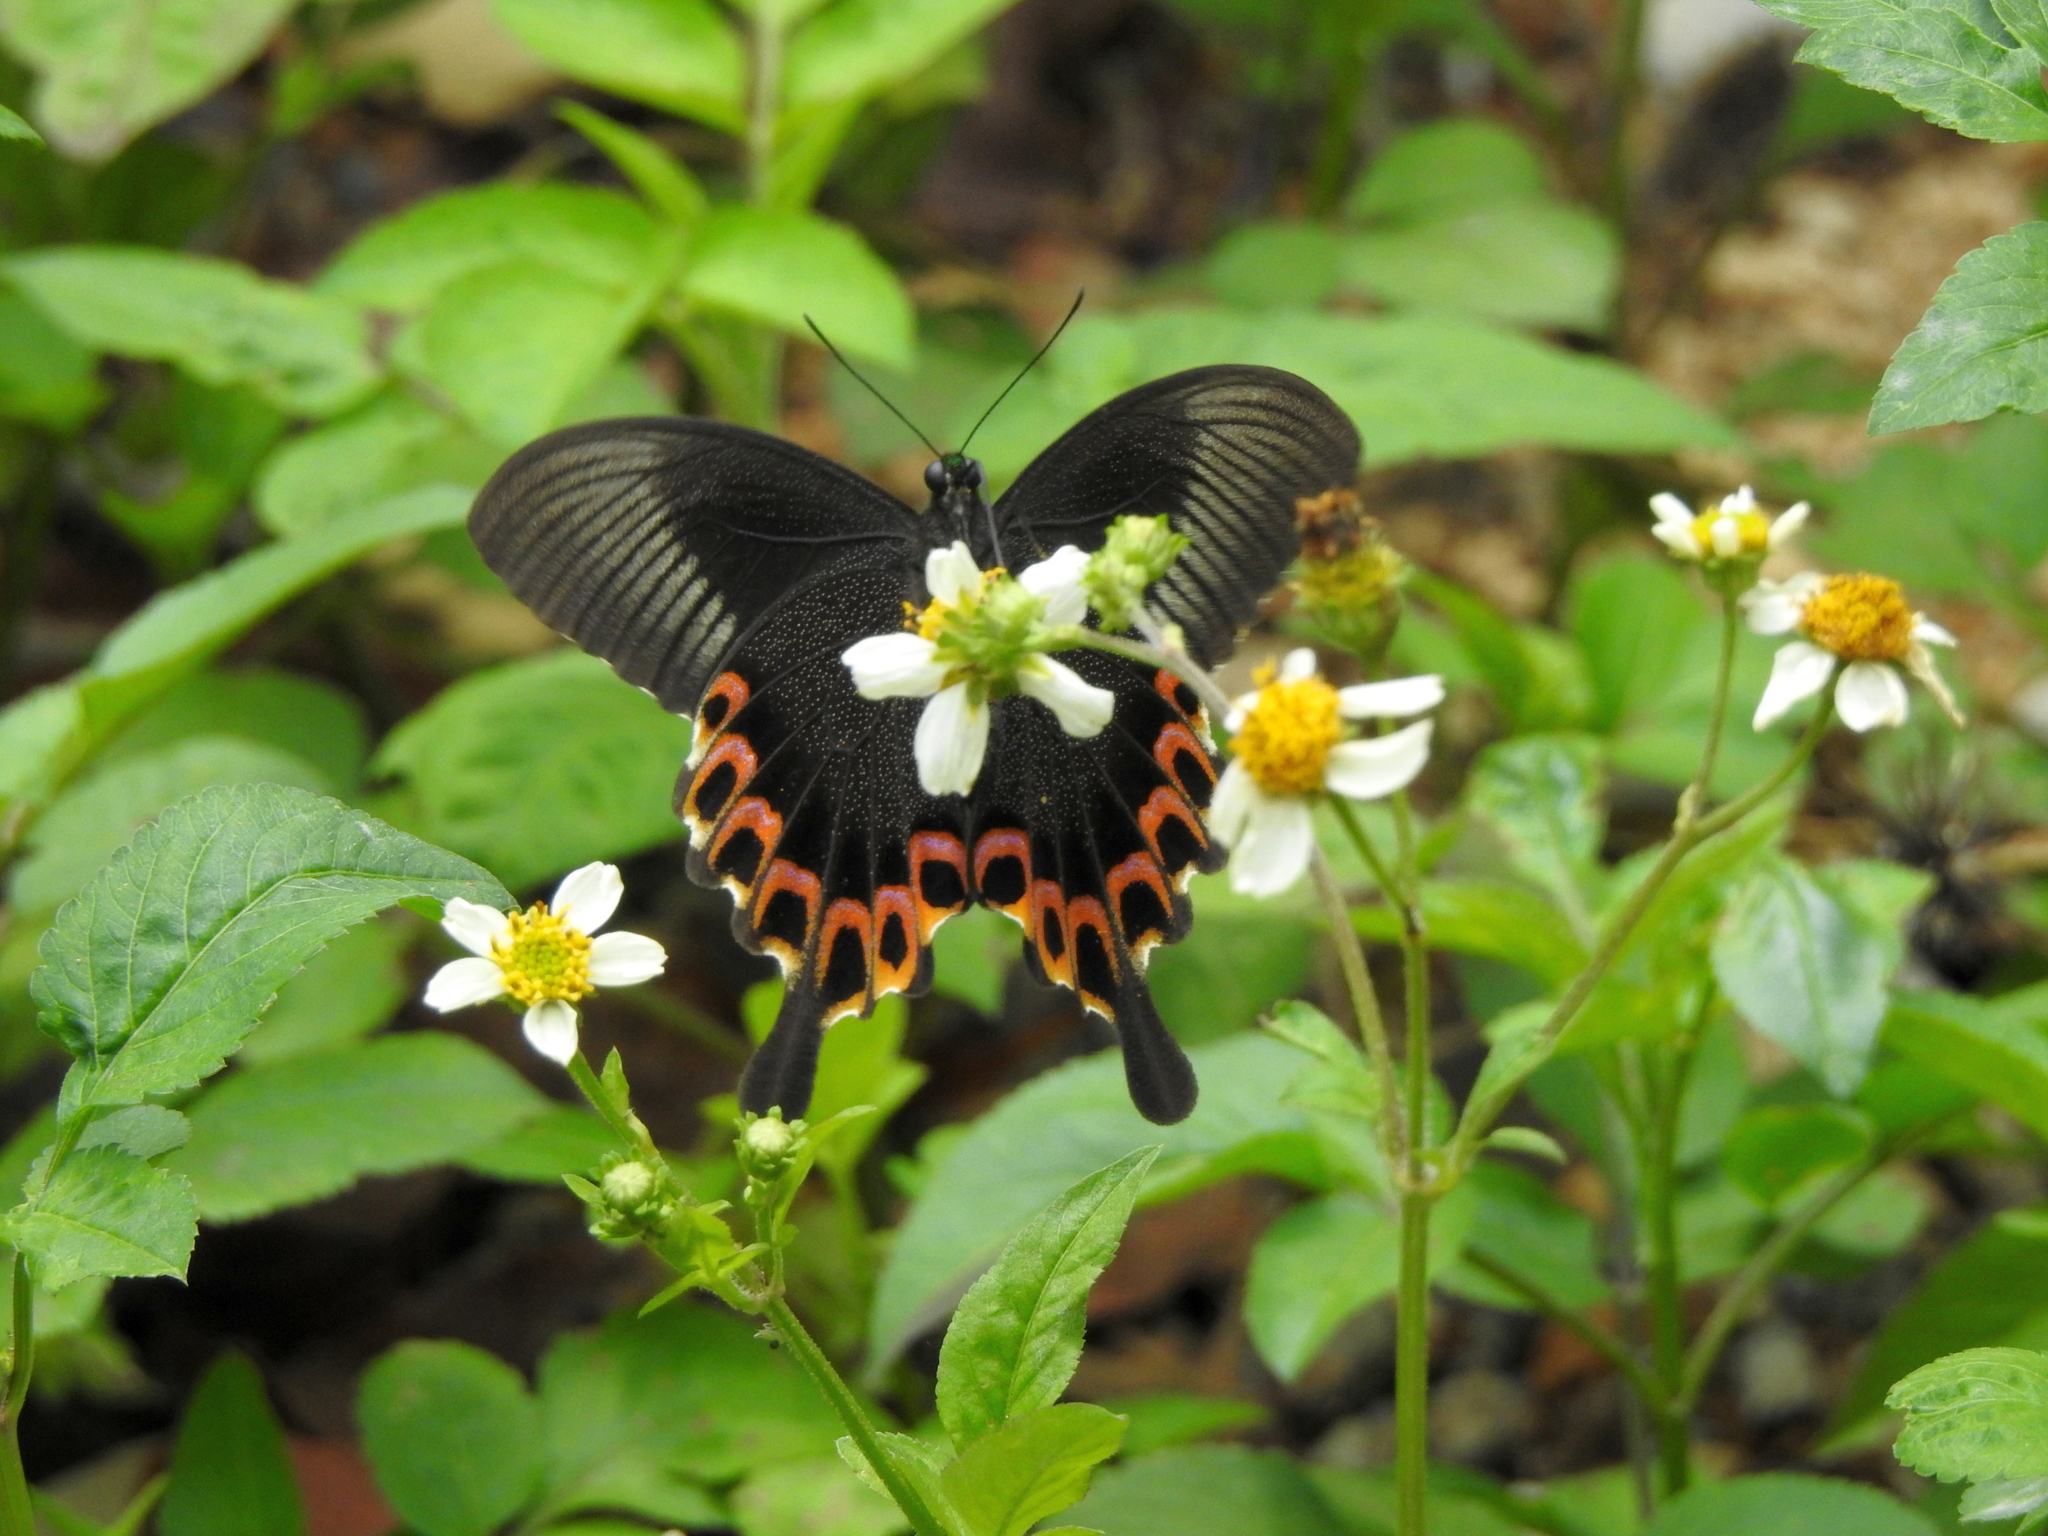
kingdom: Animalia
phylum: Arthropoda
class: Insecta
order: Lepidoptera
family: Papilionidae
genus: Papilio
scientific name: Papilio hermosanus
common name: Taiwanese glazed swallowtail
